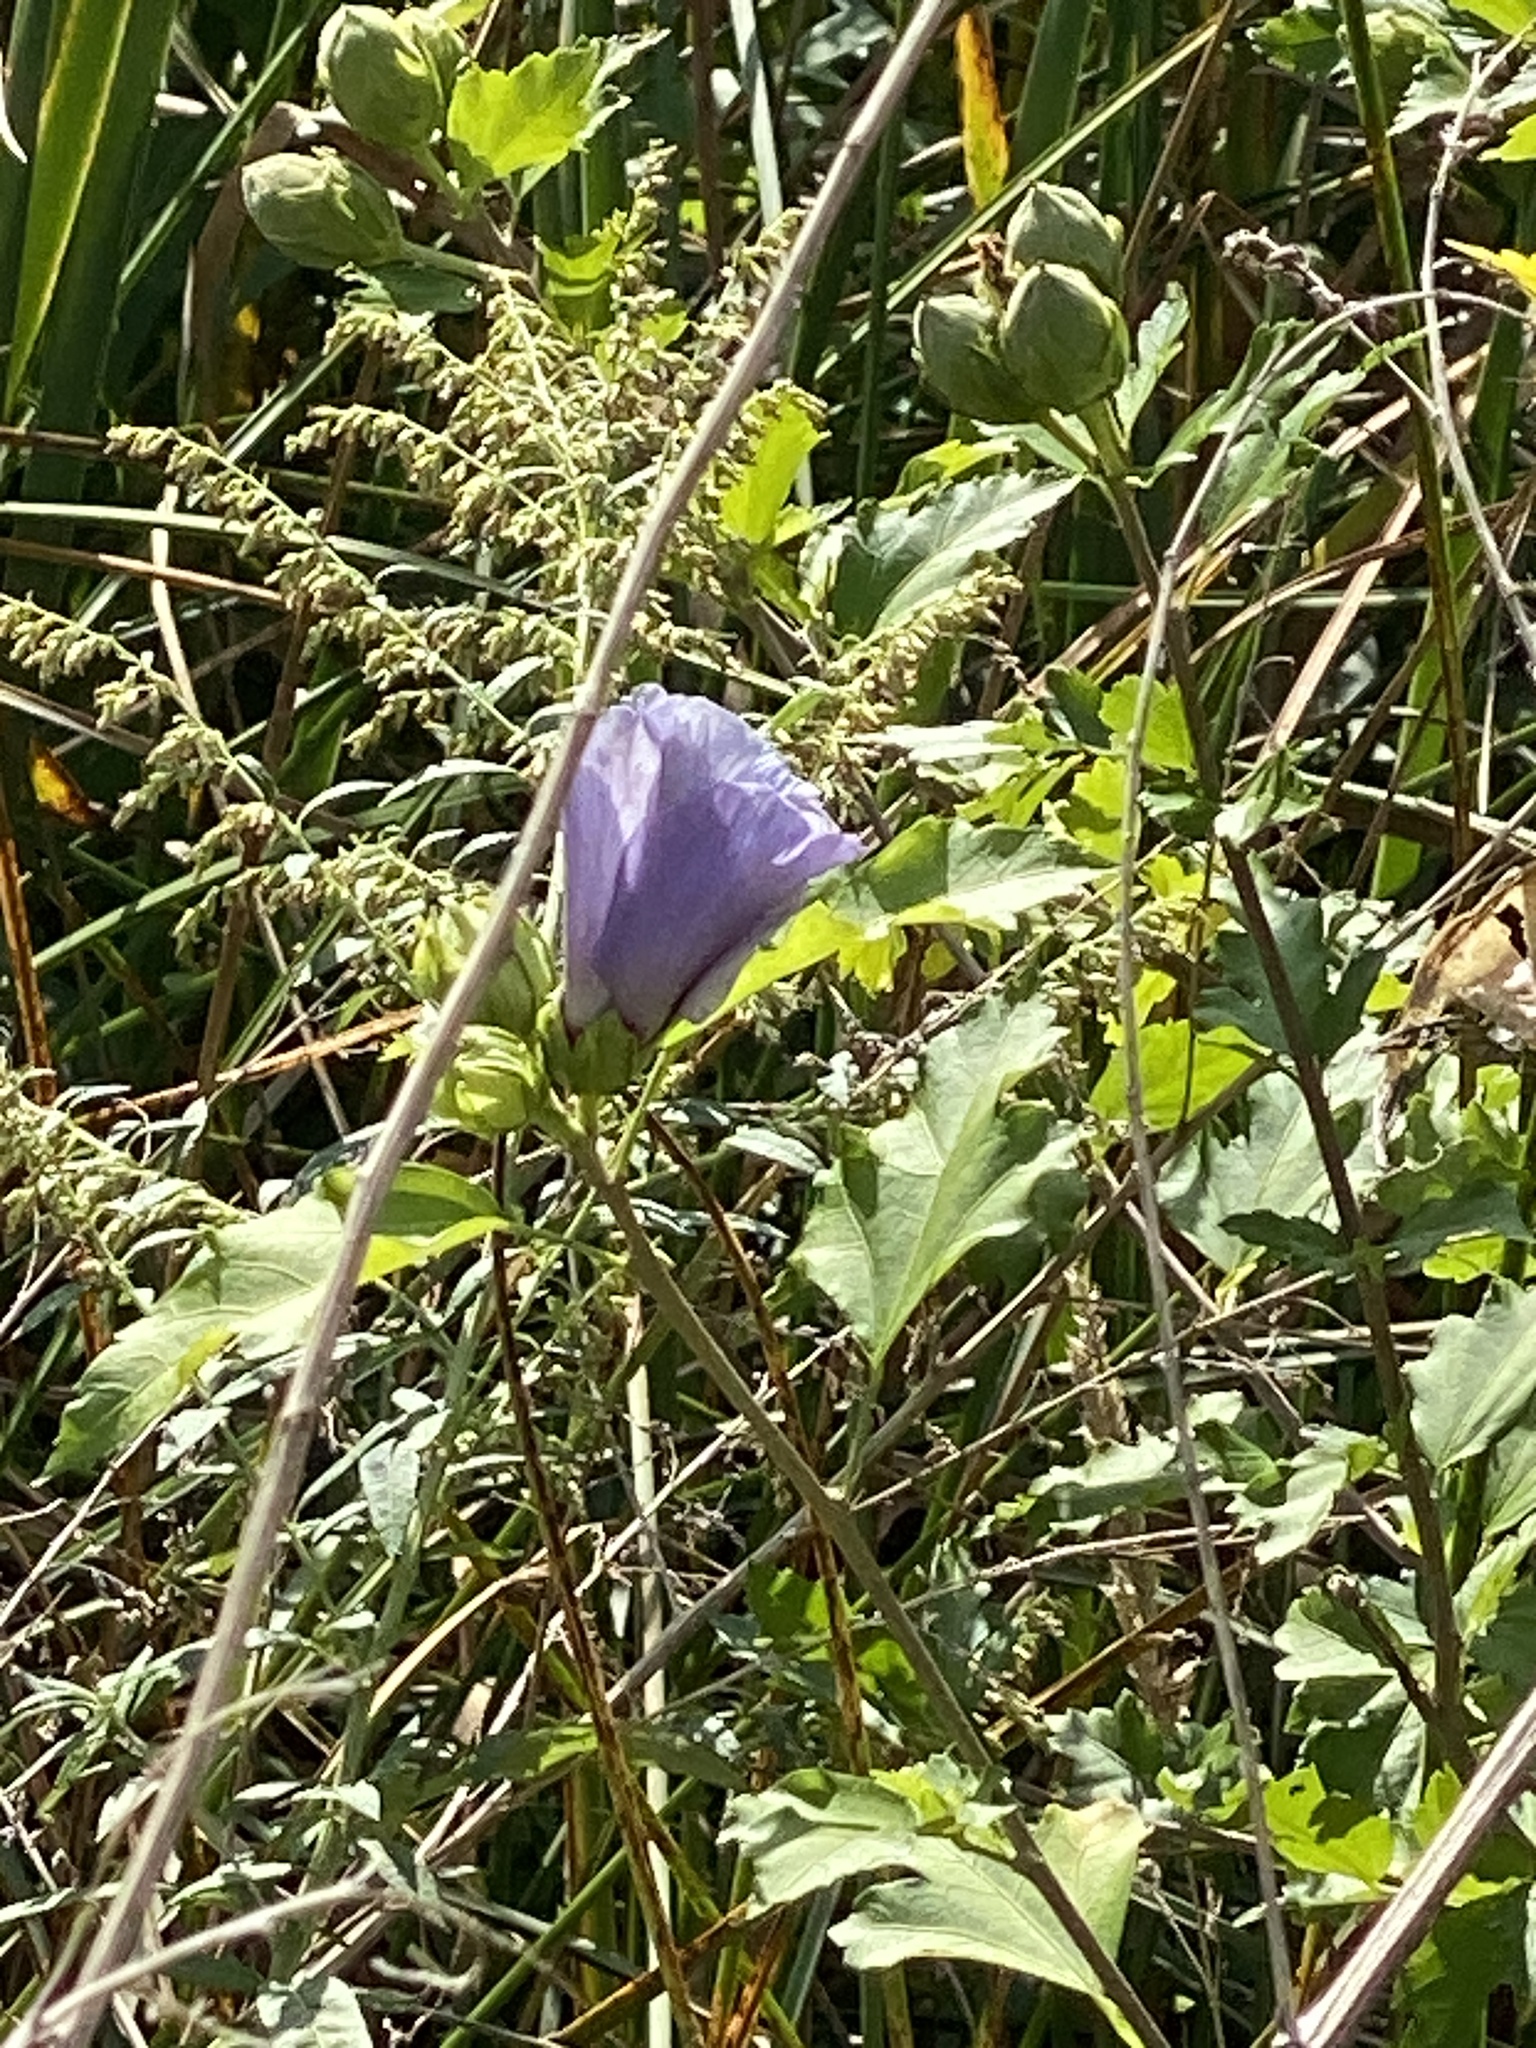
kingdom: Plantae
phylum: Tracheophyta
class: Magnoliopsida
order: Malvales
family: Malvaceae
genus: Hibiscus
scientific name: Hibiscus syriacus
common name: Syrian ketmia
